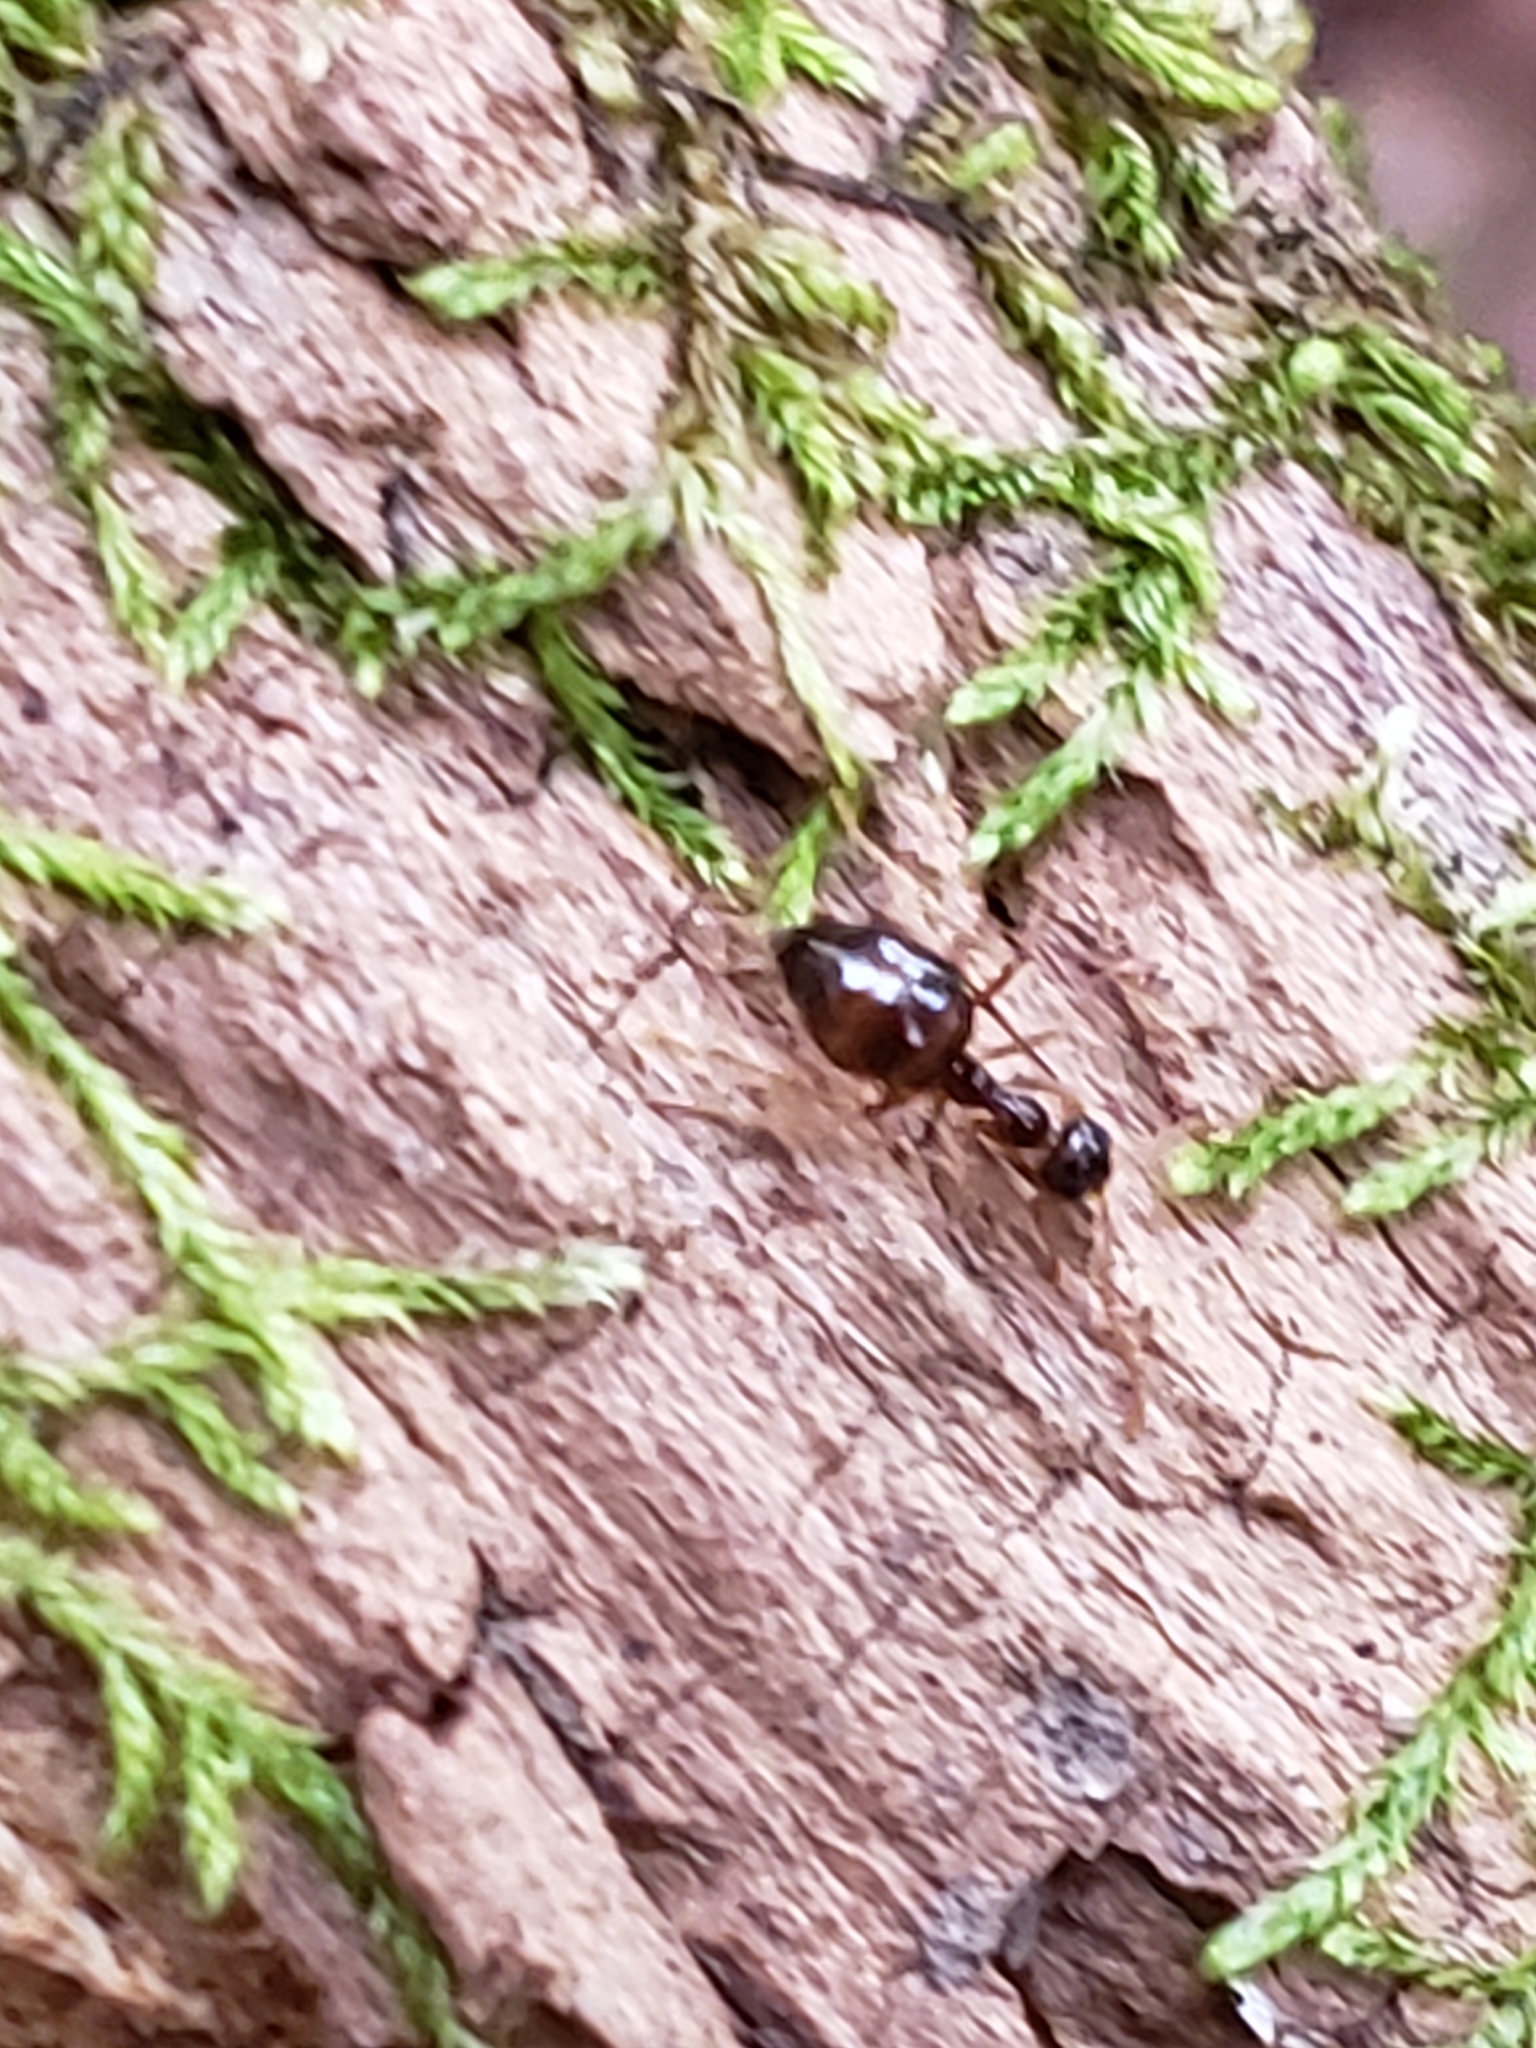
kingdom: Animalia
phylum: Arthropoda
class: Insecta
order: Hymenoptera
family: Formicidae
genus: Prenolepis
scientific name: Prenolepis imparis
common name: Small honey ant
